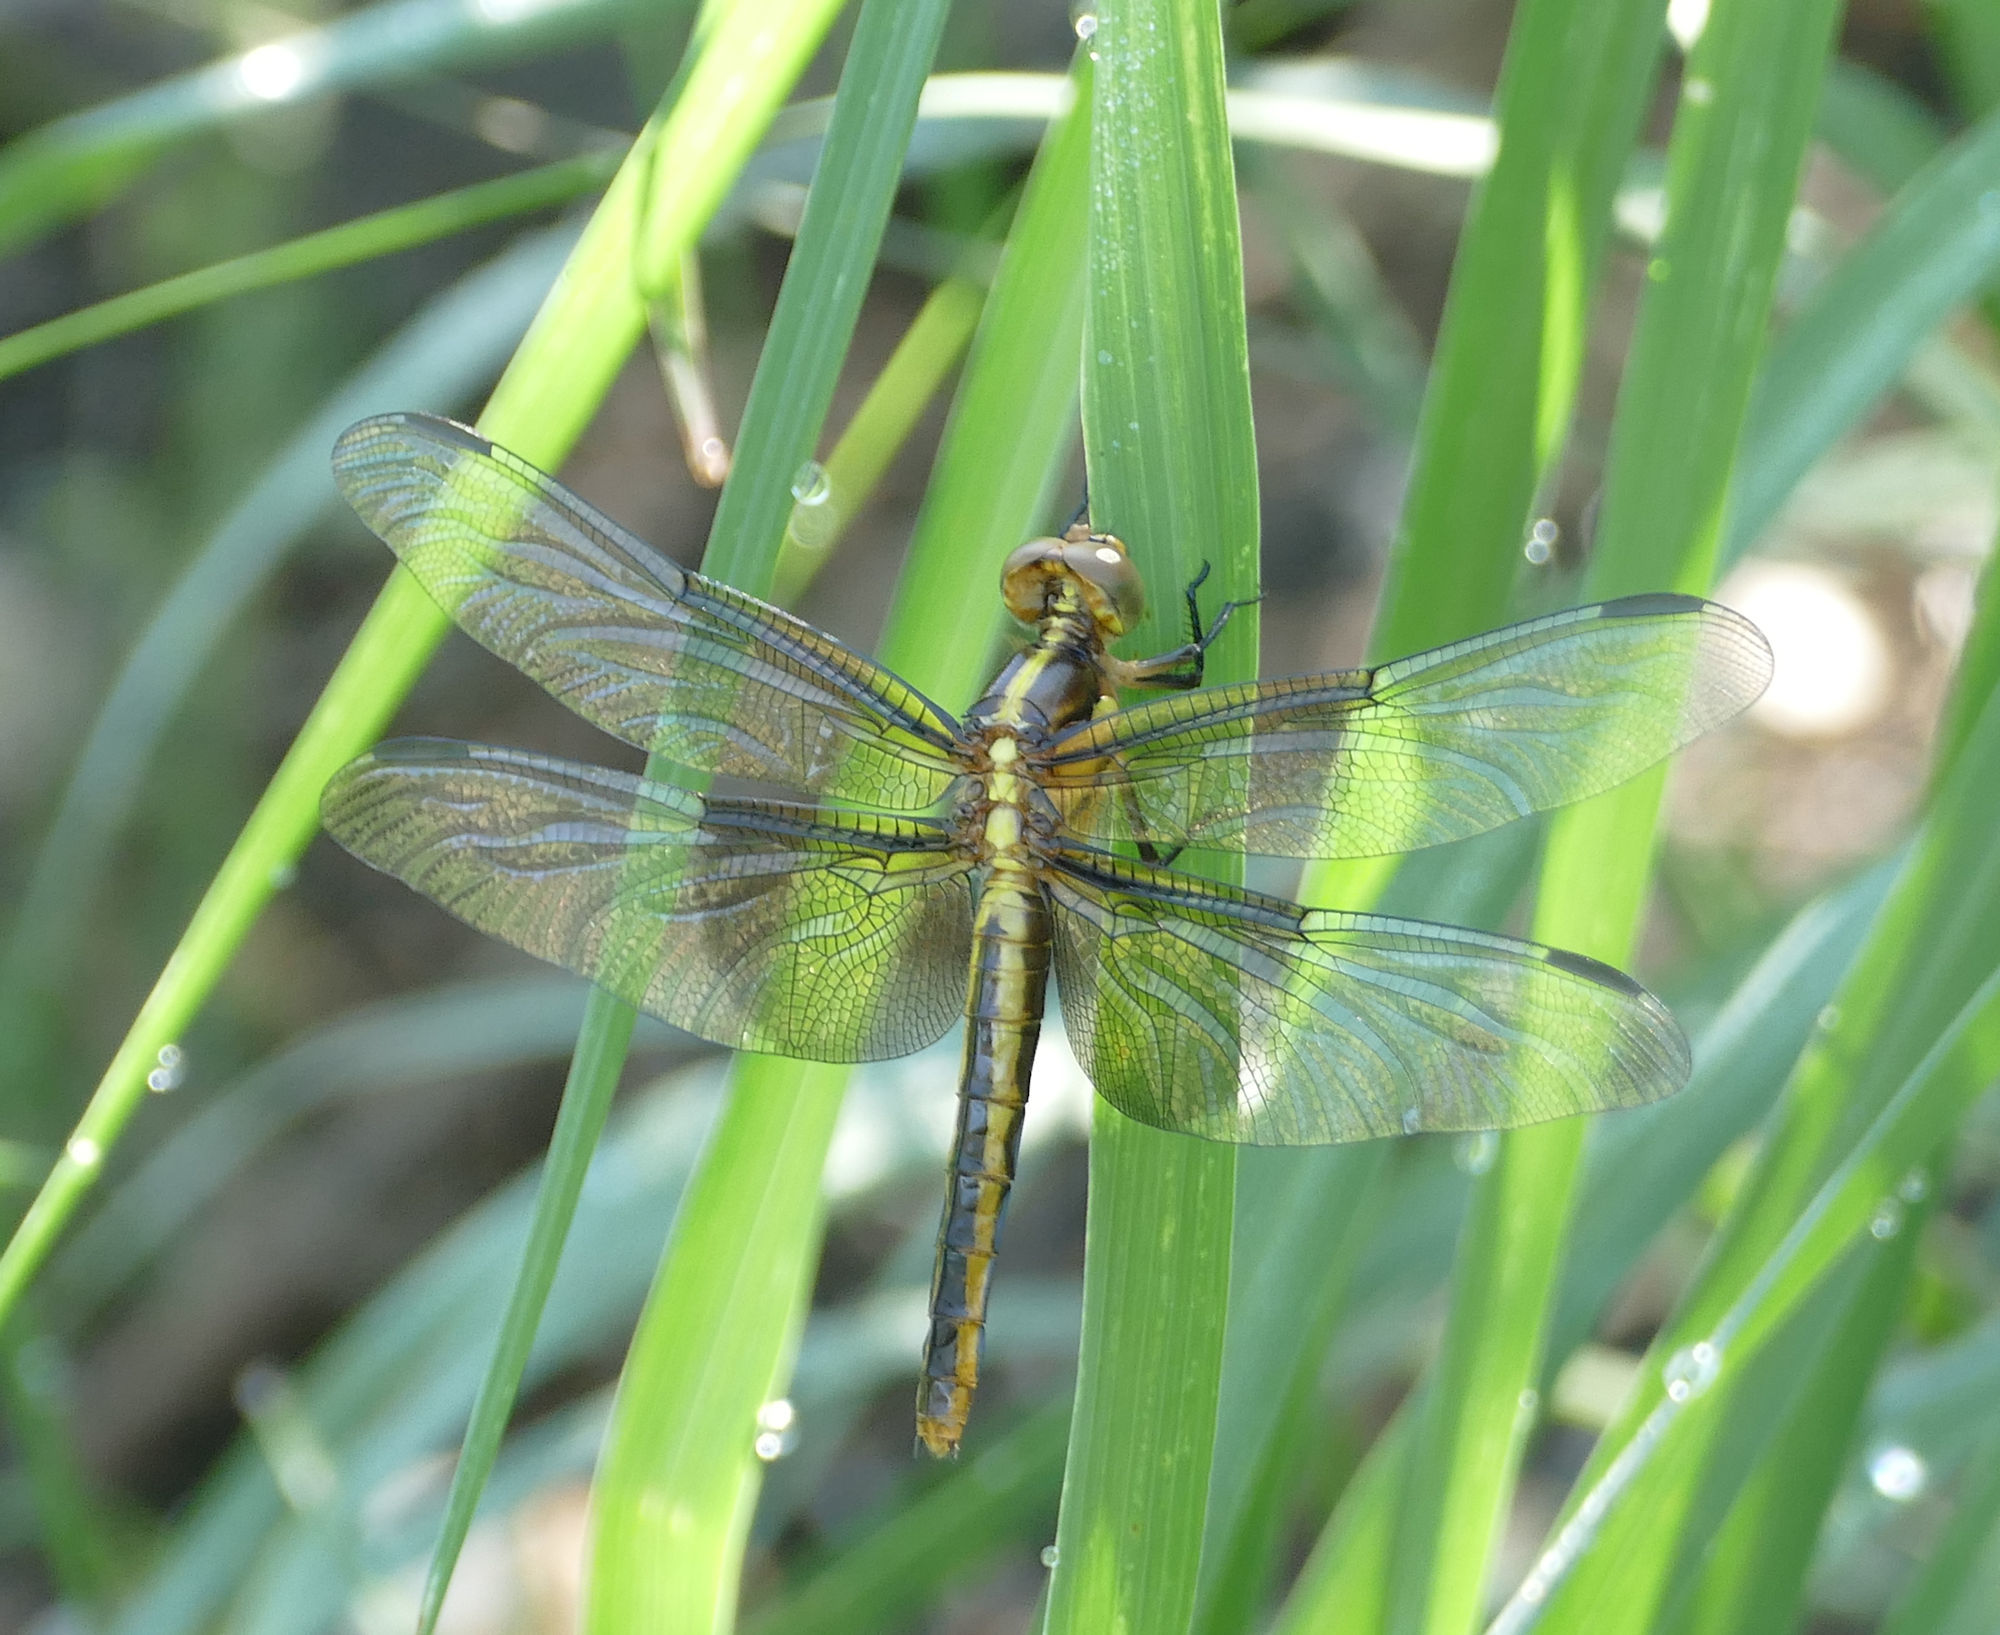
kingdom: Animalia
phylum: Arthropoda
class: Insecta
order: Odonata
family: Libellulidae
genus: Libellula
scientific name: Libellula luctuosa
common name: Widow skimmer
